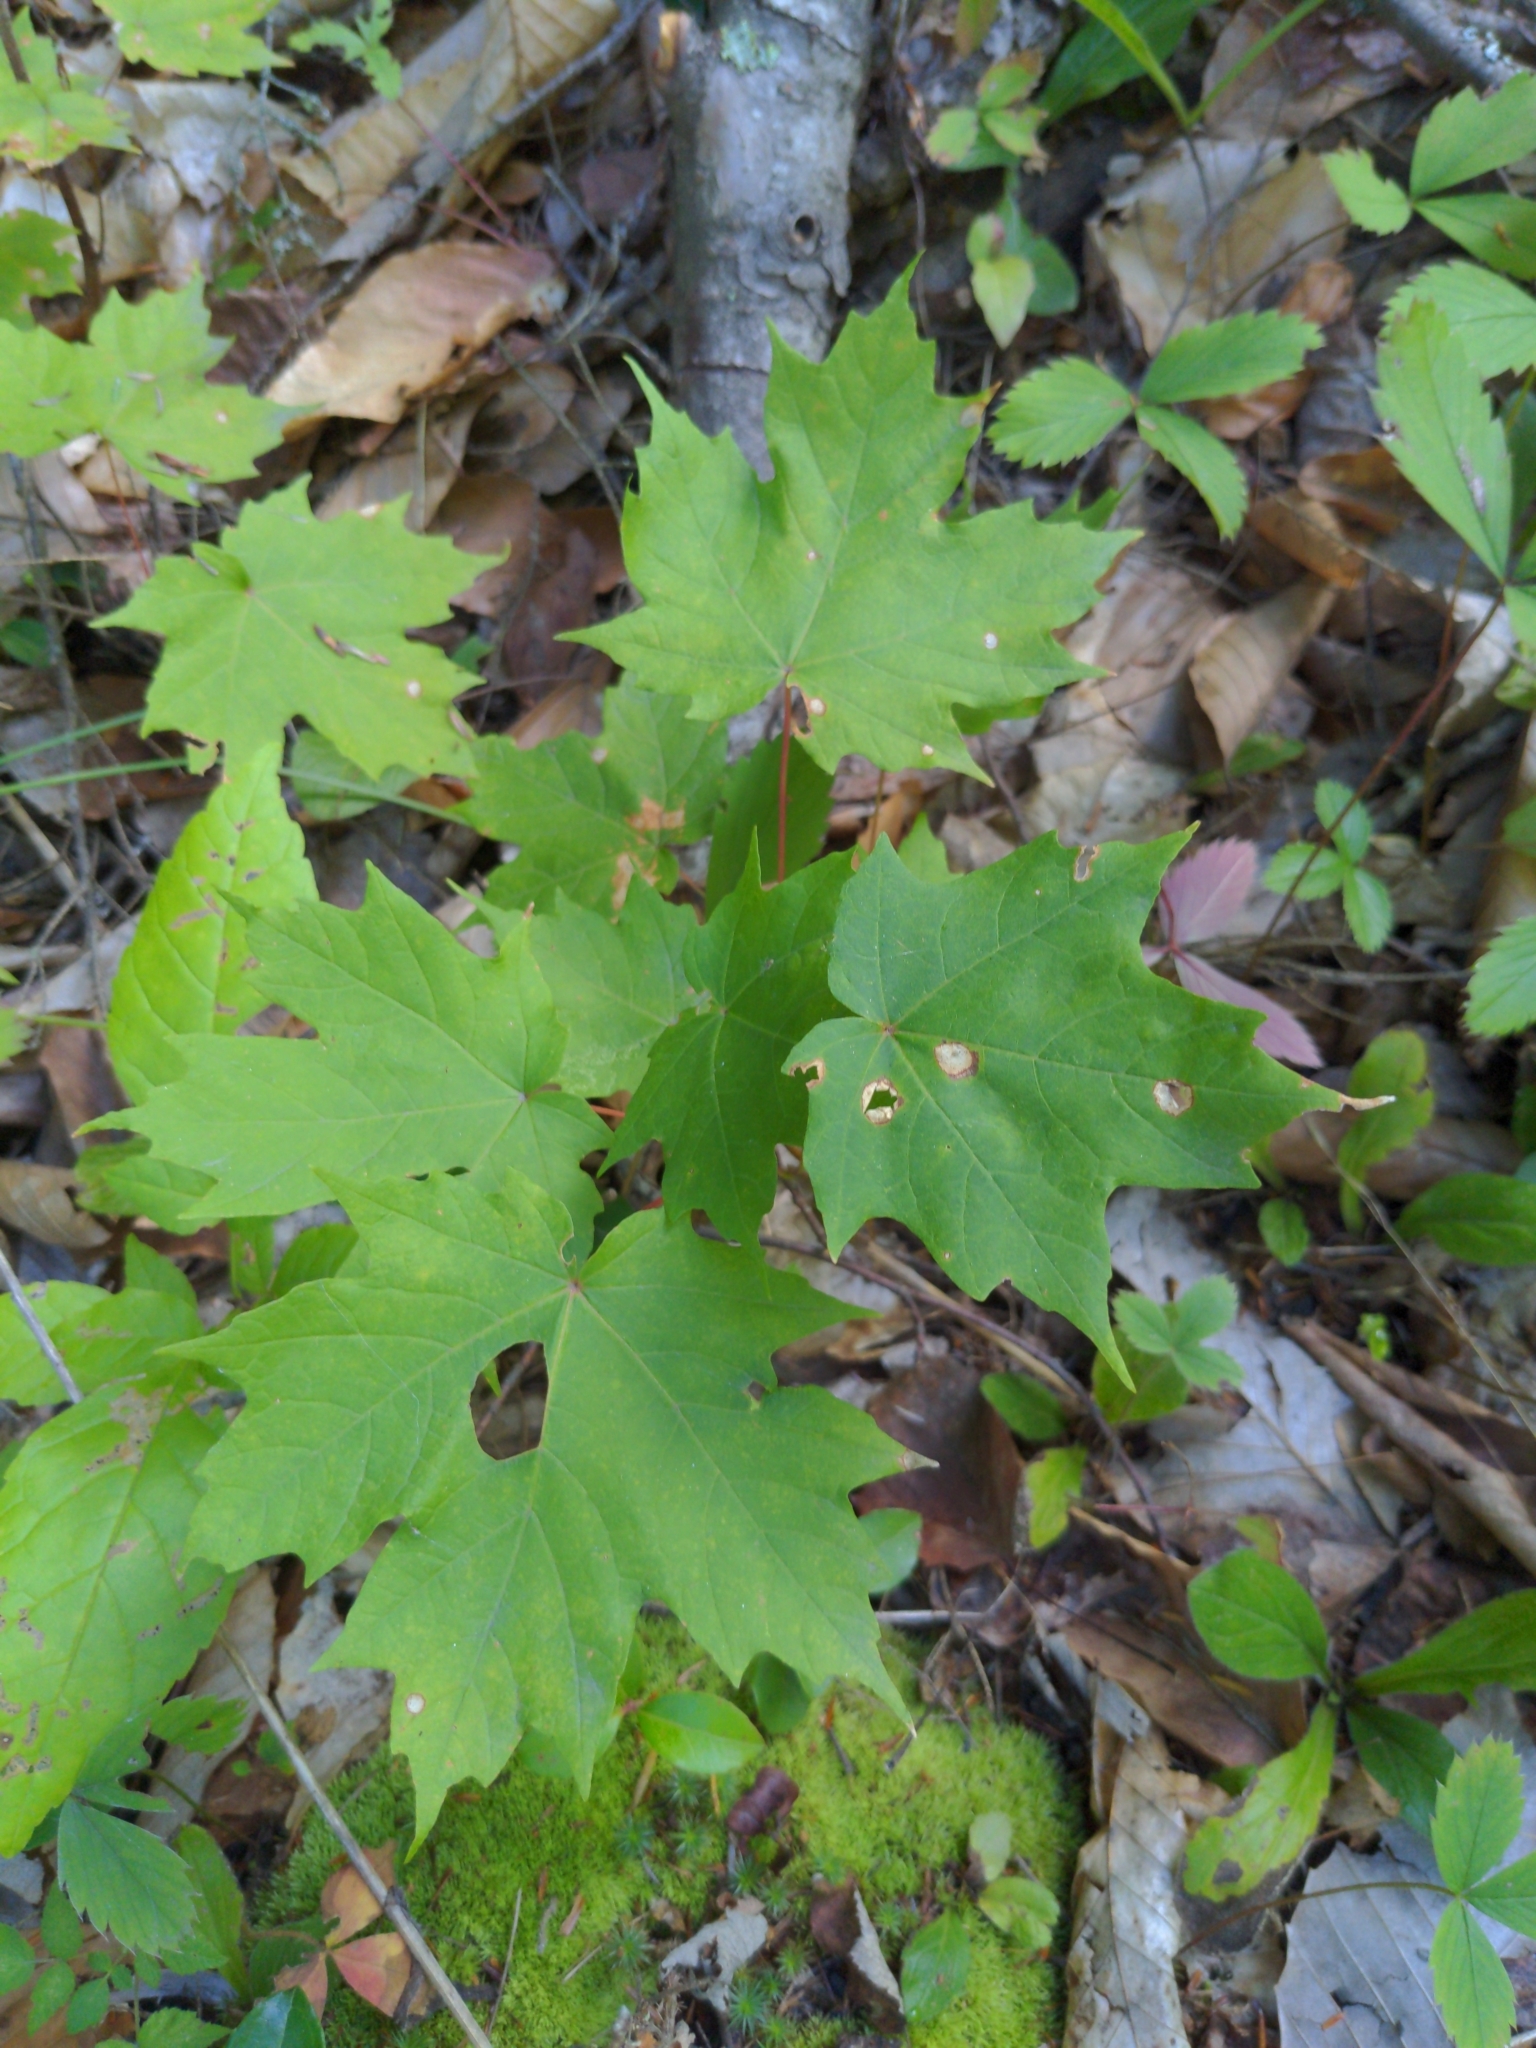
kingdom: Plantae
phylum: Tracheophyta
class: Magnoliopsida
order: Sapindales
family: Sapindaceae
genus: Acer
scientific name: Acer saccharum
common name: Sugar maple
